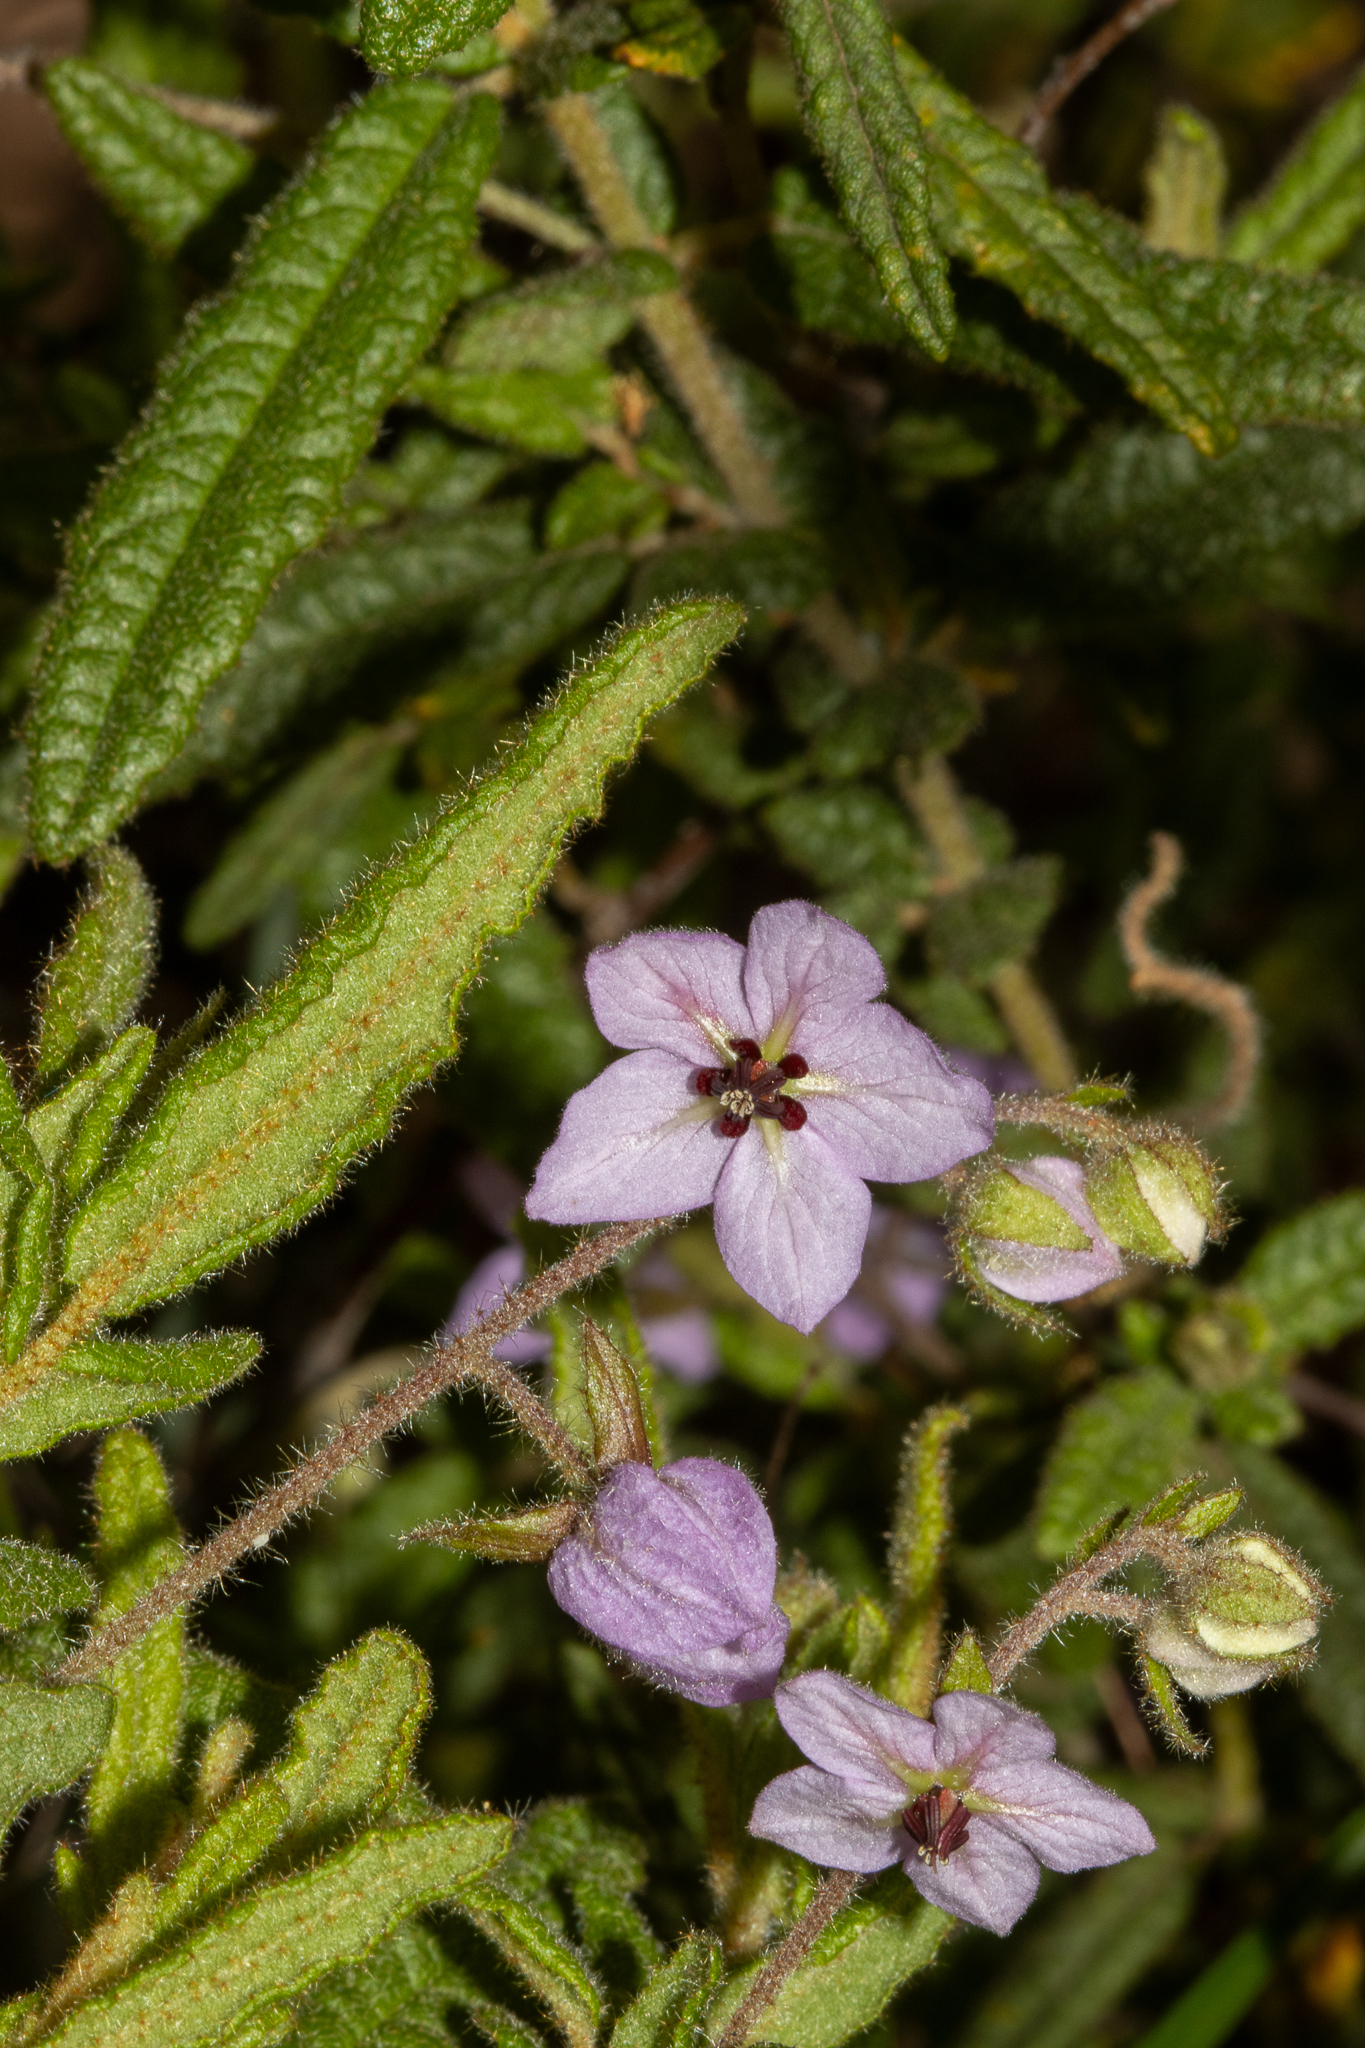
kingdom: Plantae
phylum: Tracheophyta
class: Magnoliopsida
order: Malvales
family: Malvaceae
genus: Thomasia
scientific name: Thomasia petalocalyx
